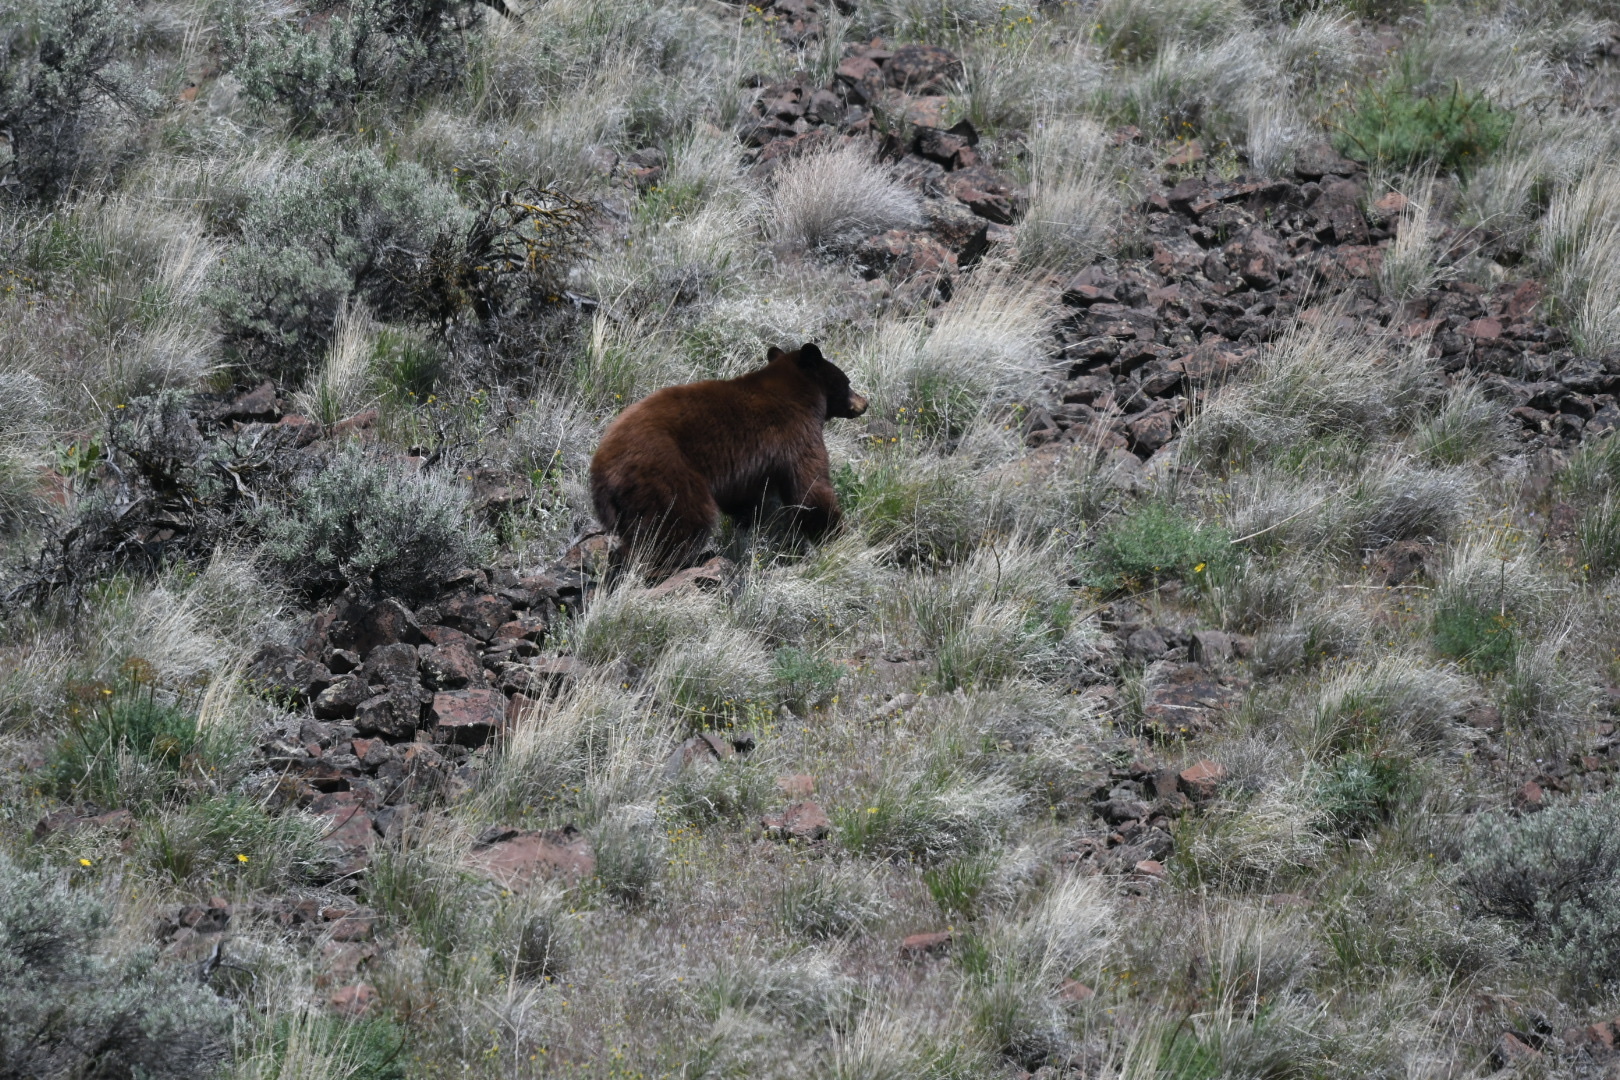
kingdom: Animalia
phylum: Chordata
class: Mammalia
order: Carnivora
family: Ursidae
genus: Ursus
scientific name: Ursus americanus
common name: American black bear
